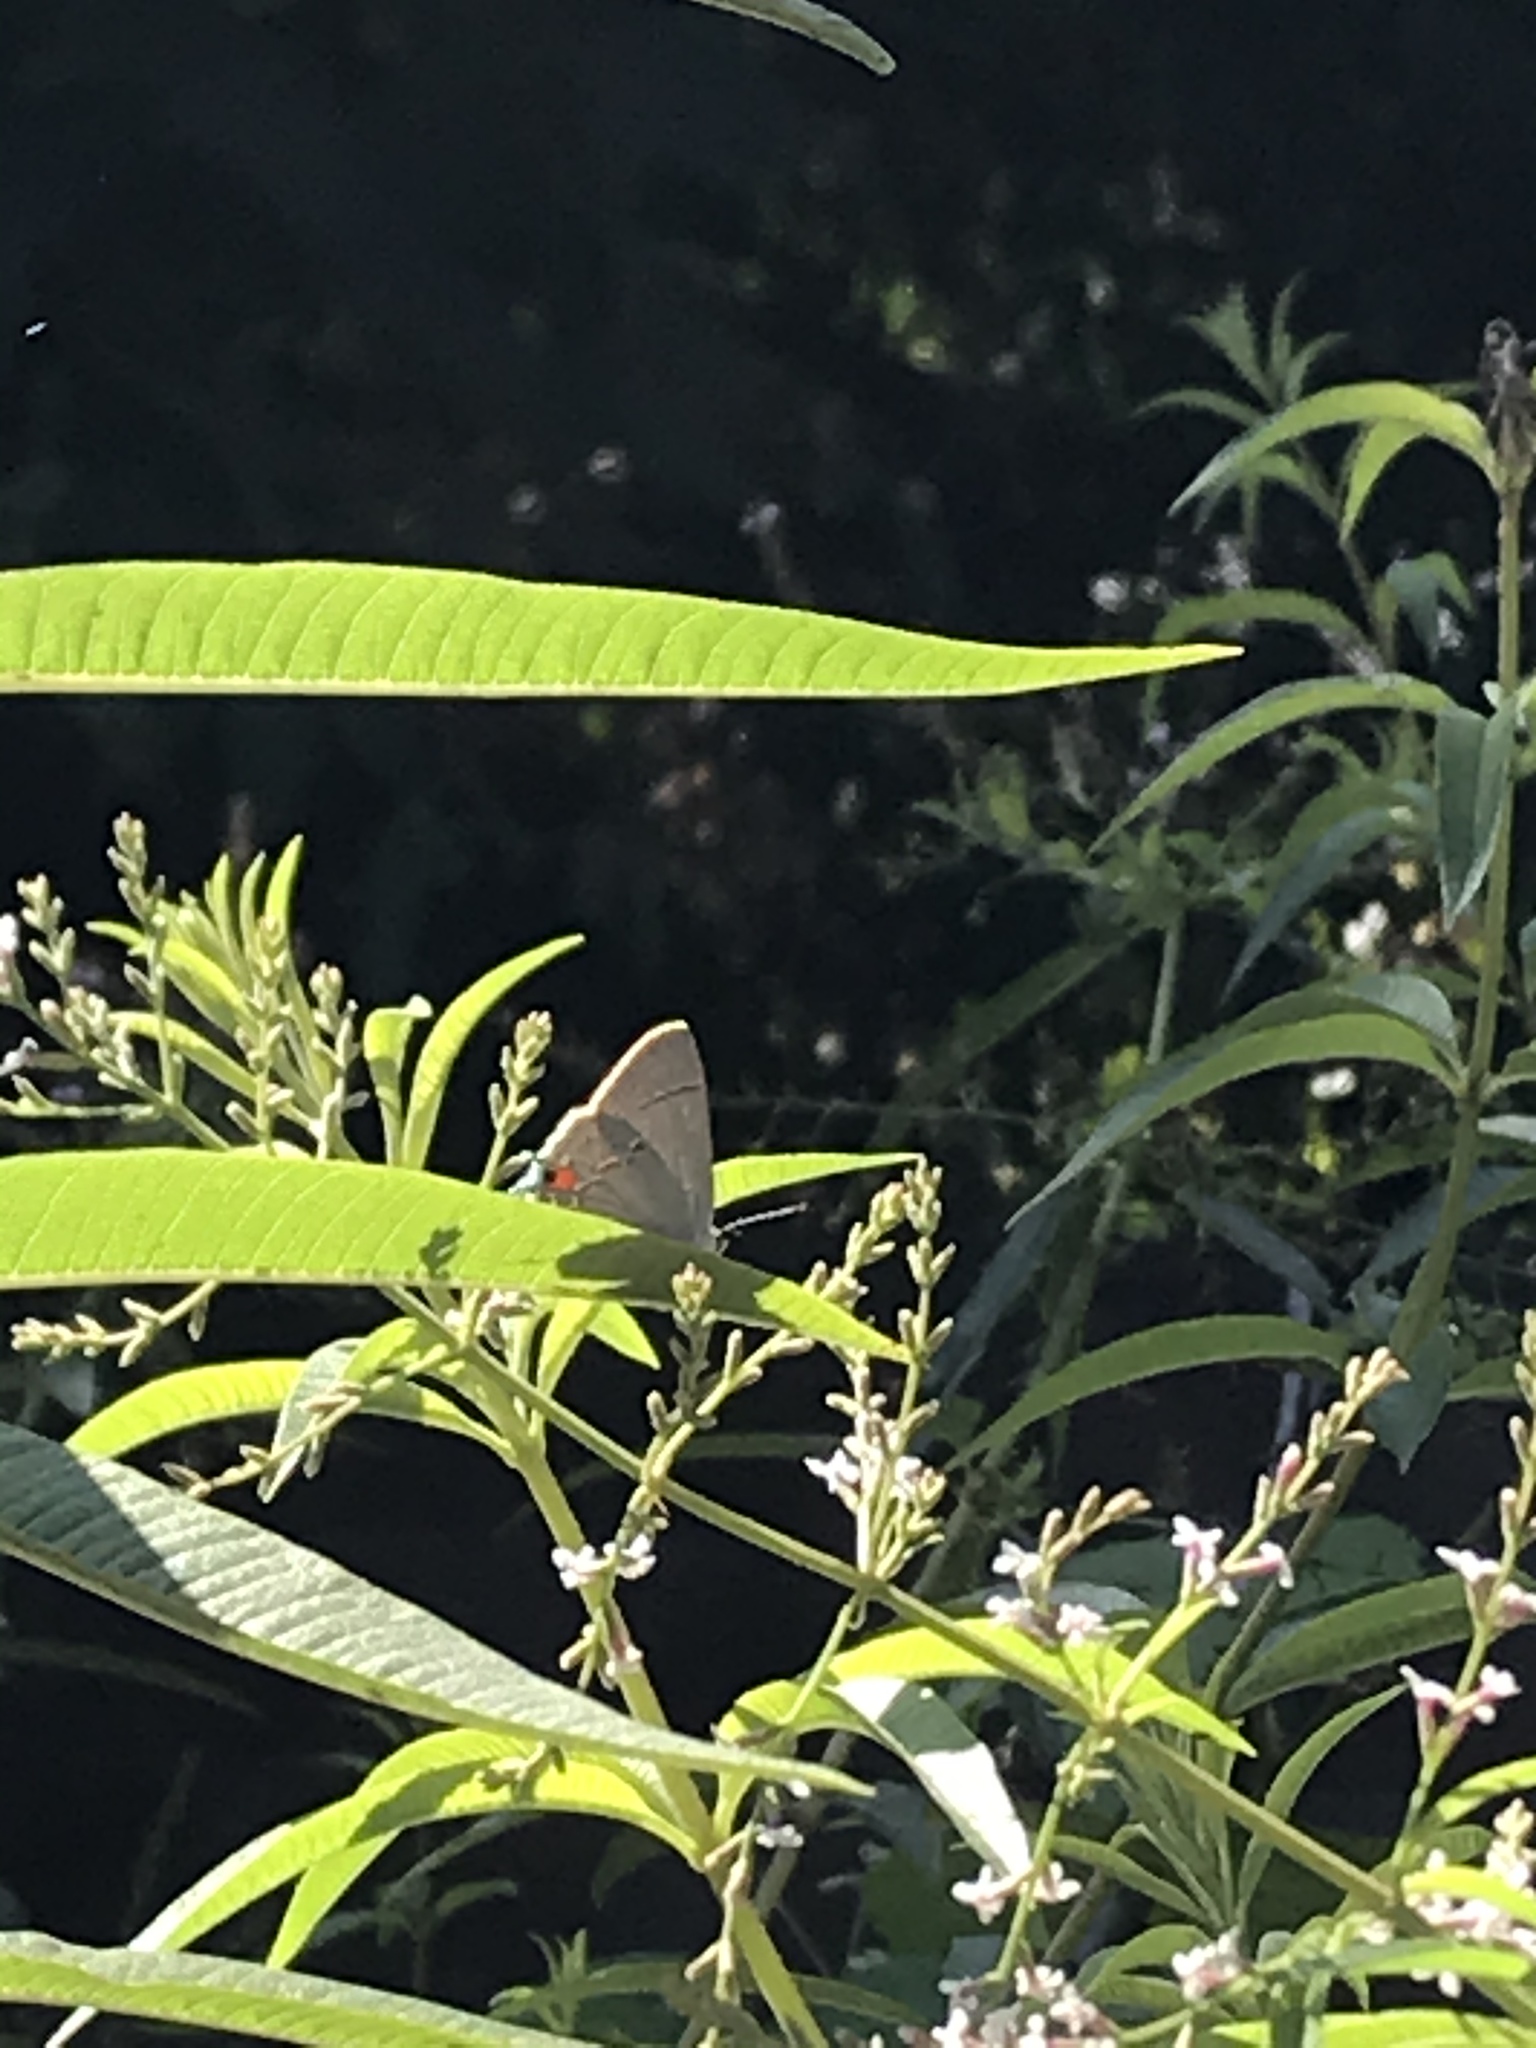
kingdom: Animalia
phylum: Arthropoda
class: Insecta
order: Lepidoptera
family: Lycaenidae
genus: Strymon
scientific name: Strymon melinus
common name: Gray hairstreak
